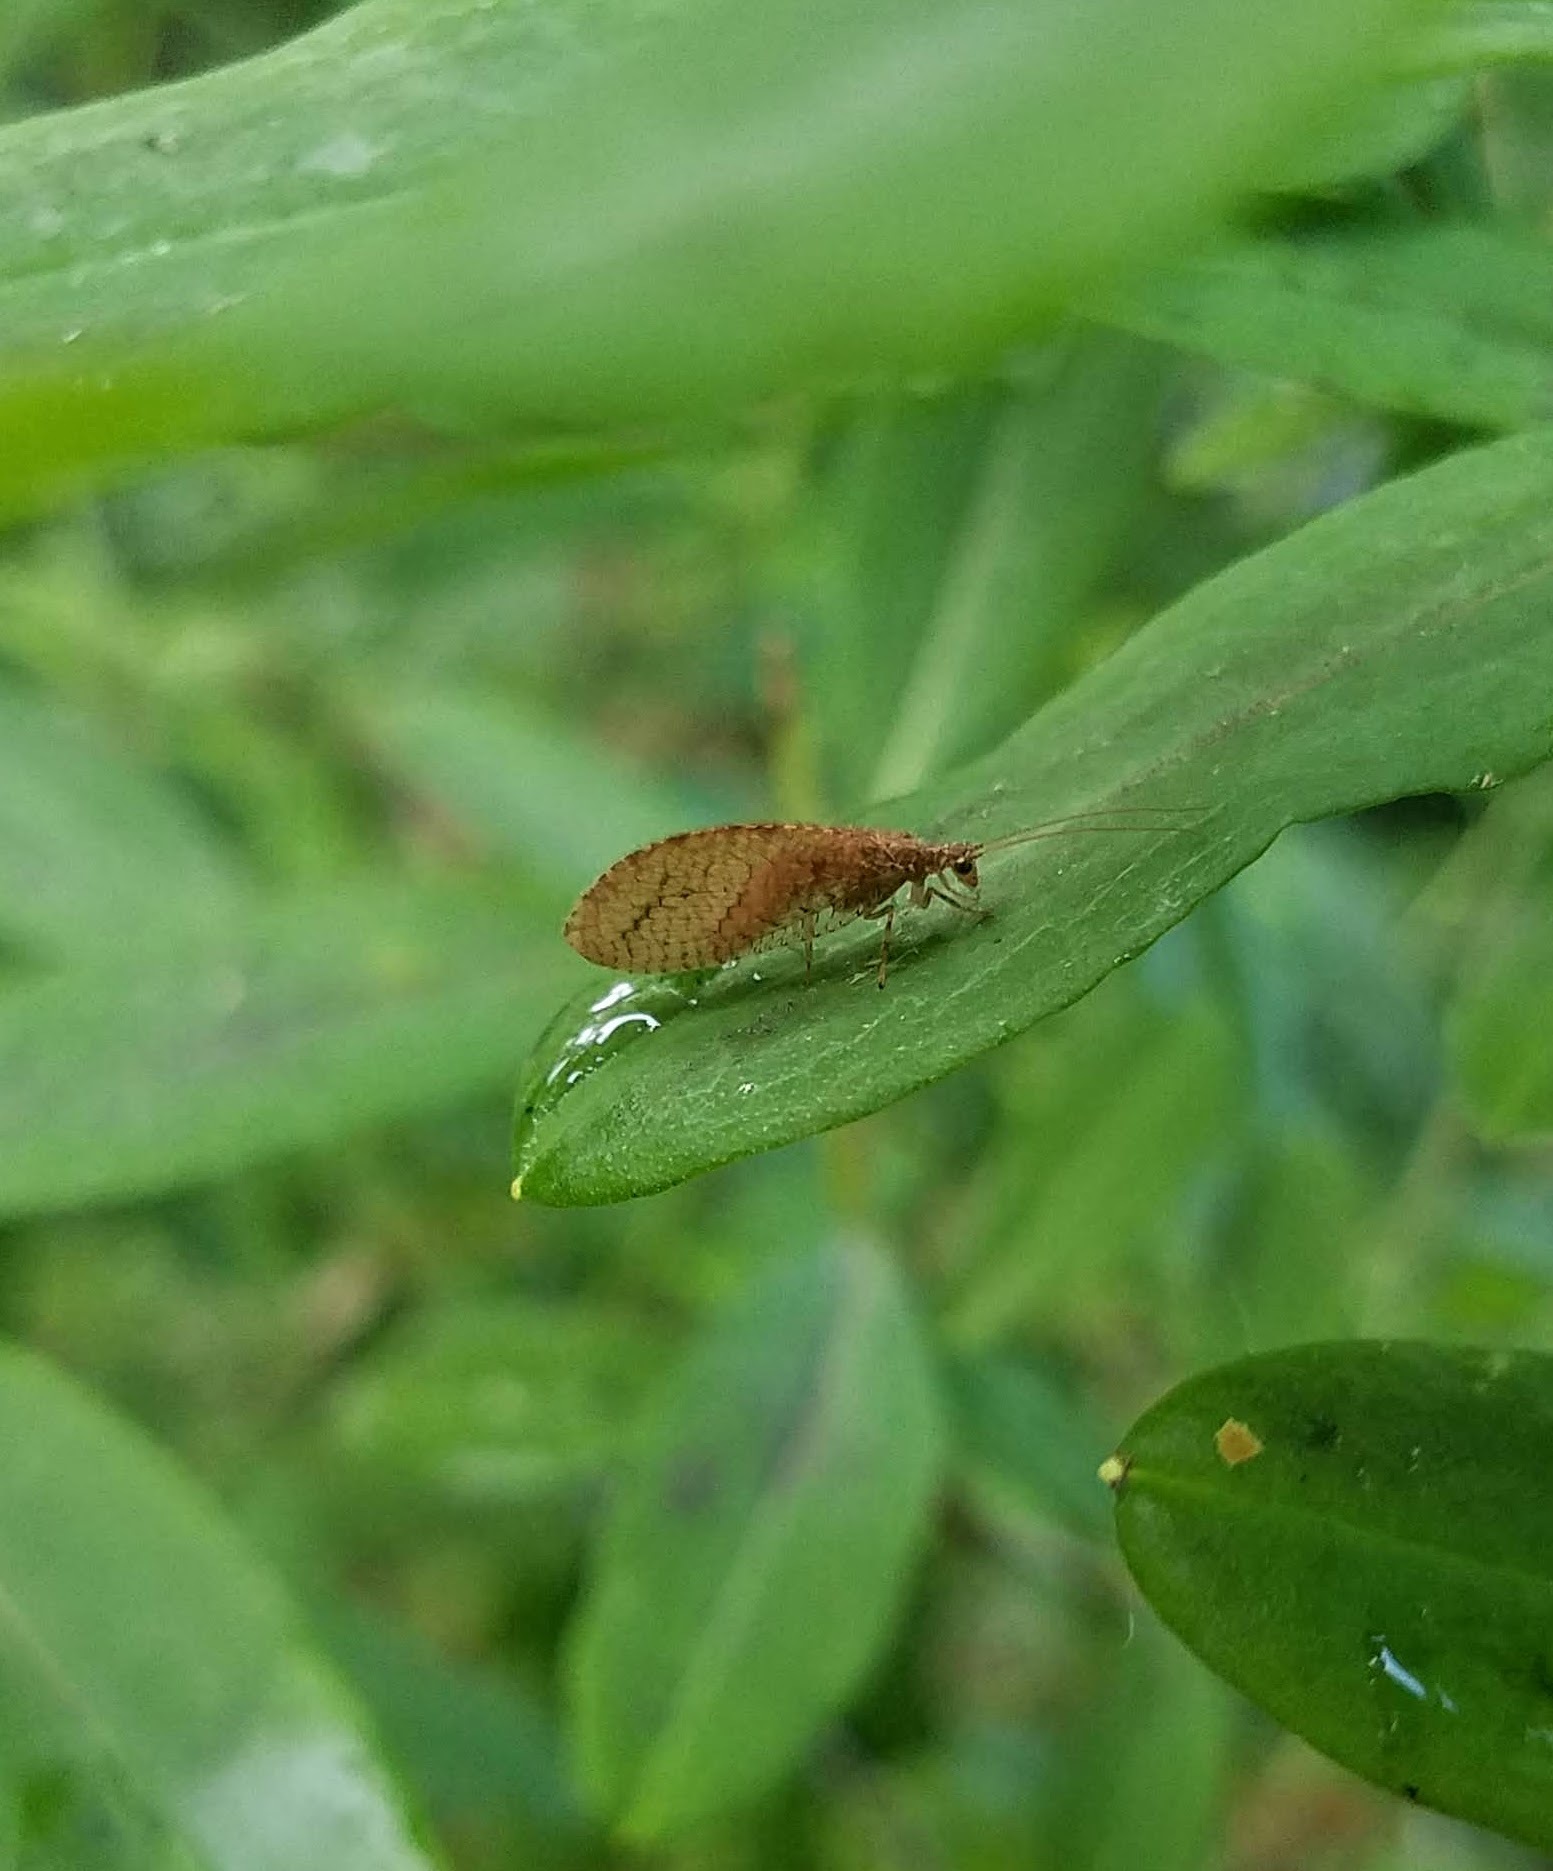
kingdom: Animalia
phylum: Arthropoda
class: Insecta
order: Neuroptera
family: Hemerobiidae
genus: Micromus
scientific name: Micromus posticus
